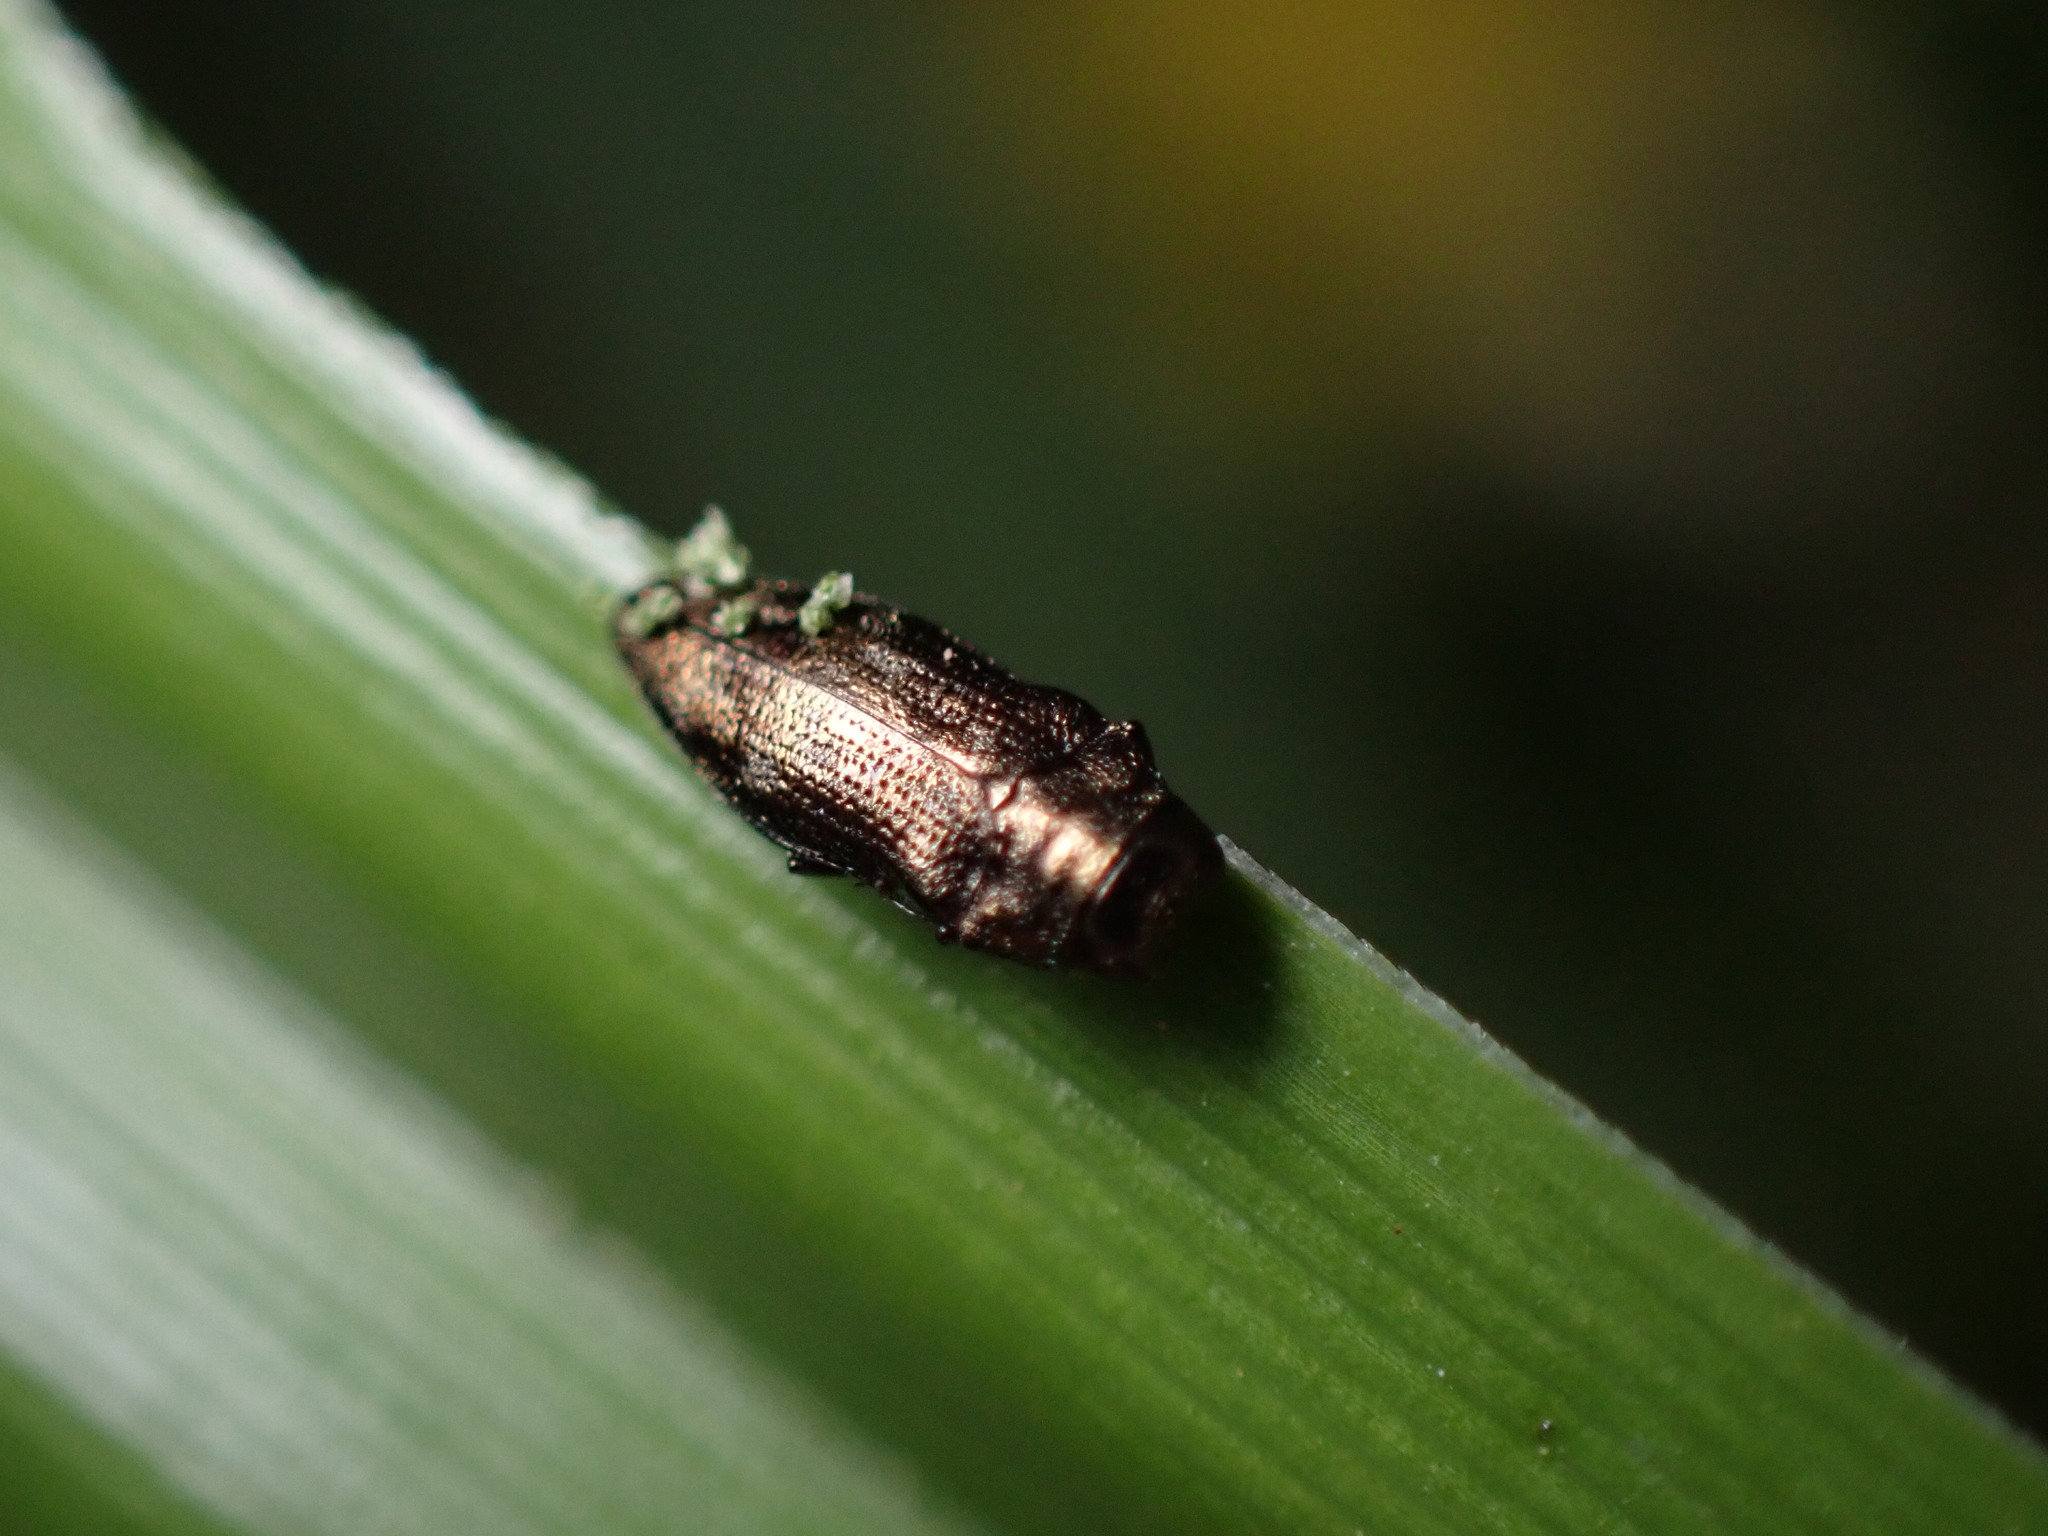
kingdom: Animalia
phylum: Arthropoda
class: Insecta
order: Coleoptera
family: Buprestidae
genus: Taphrocerus
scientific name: Taphrocerus chevrolati
